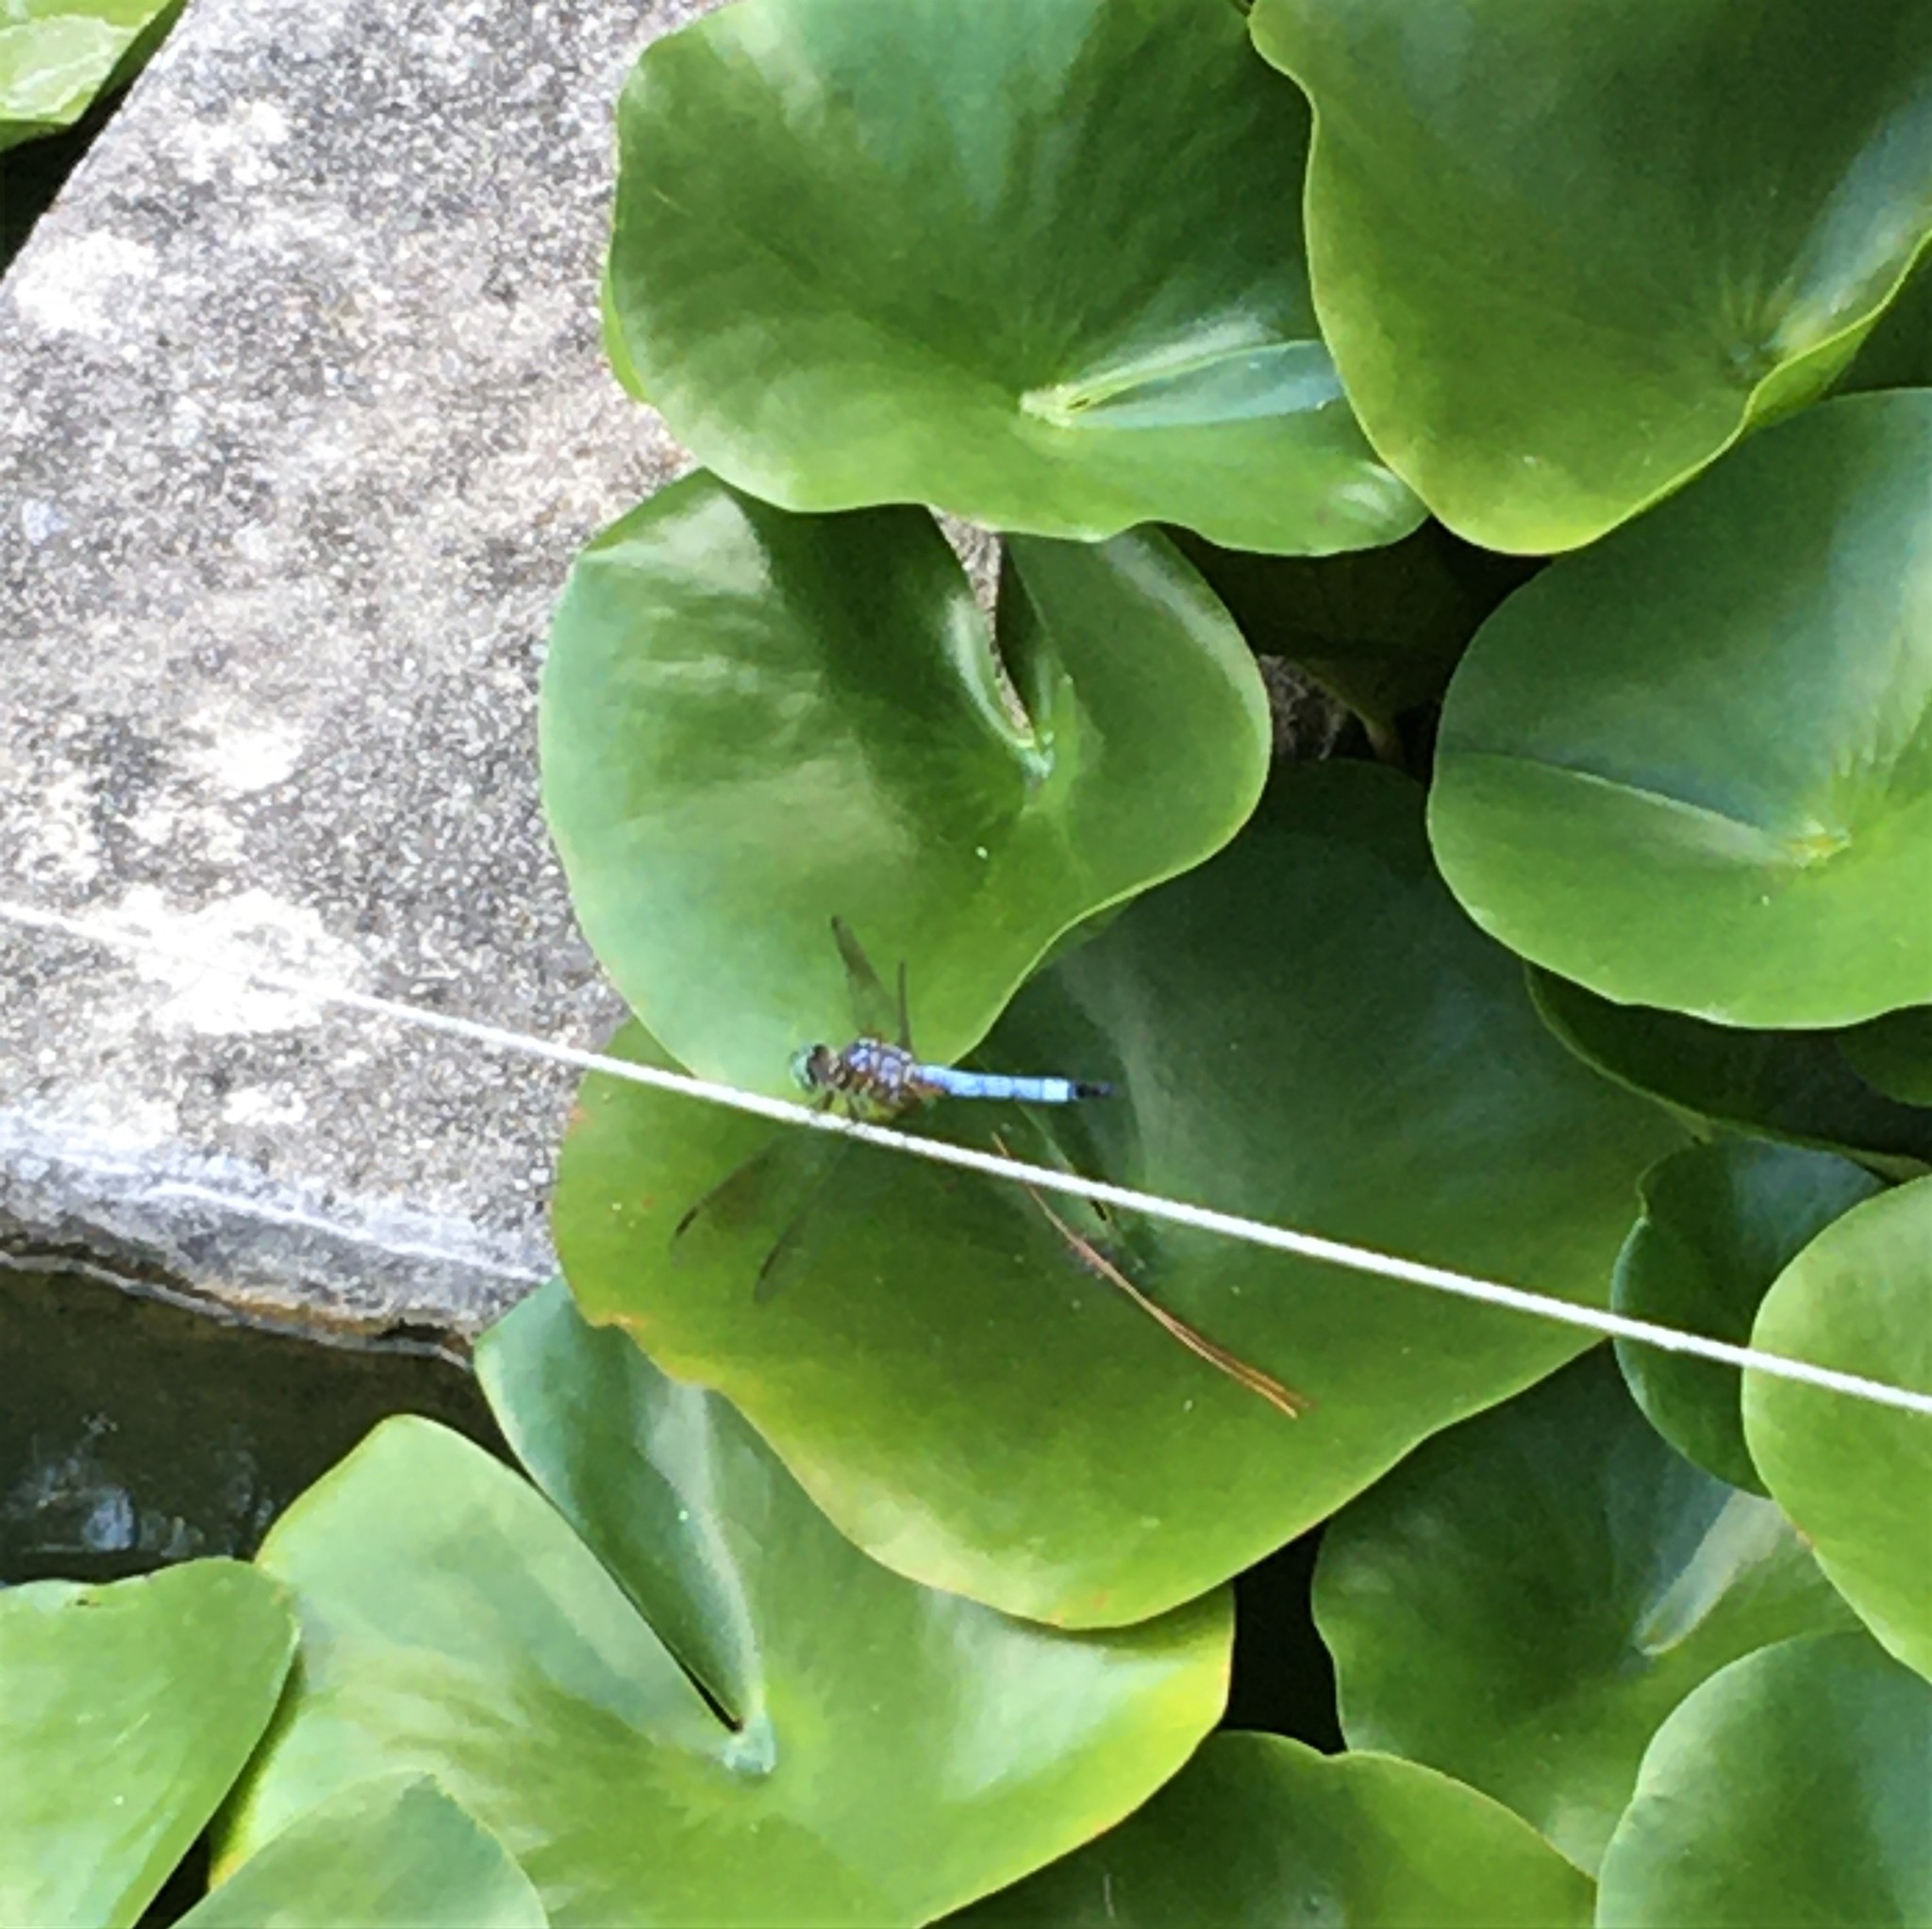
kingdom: Animalia
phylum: Arthropoda
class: Insecta
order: Odonata
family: Libellulidae
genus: Pachydiplax
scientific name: Pachydiplax longipennis
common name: Blue dasher
